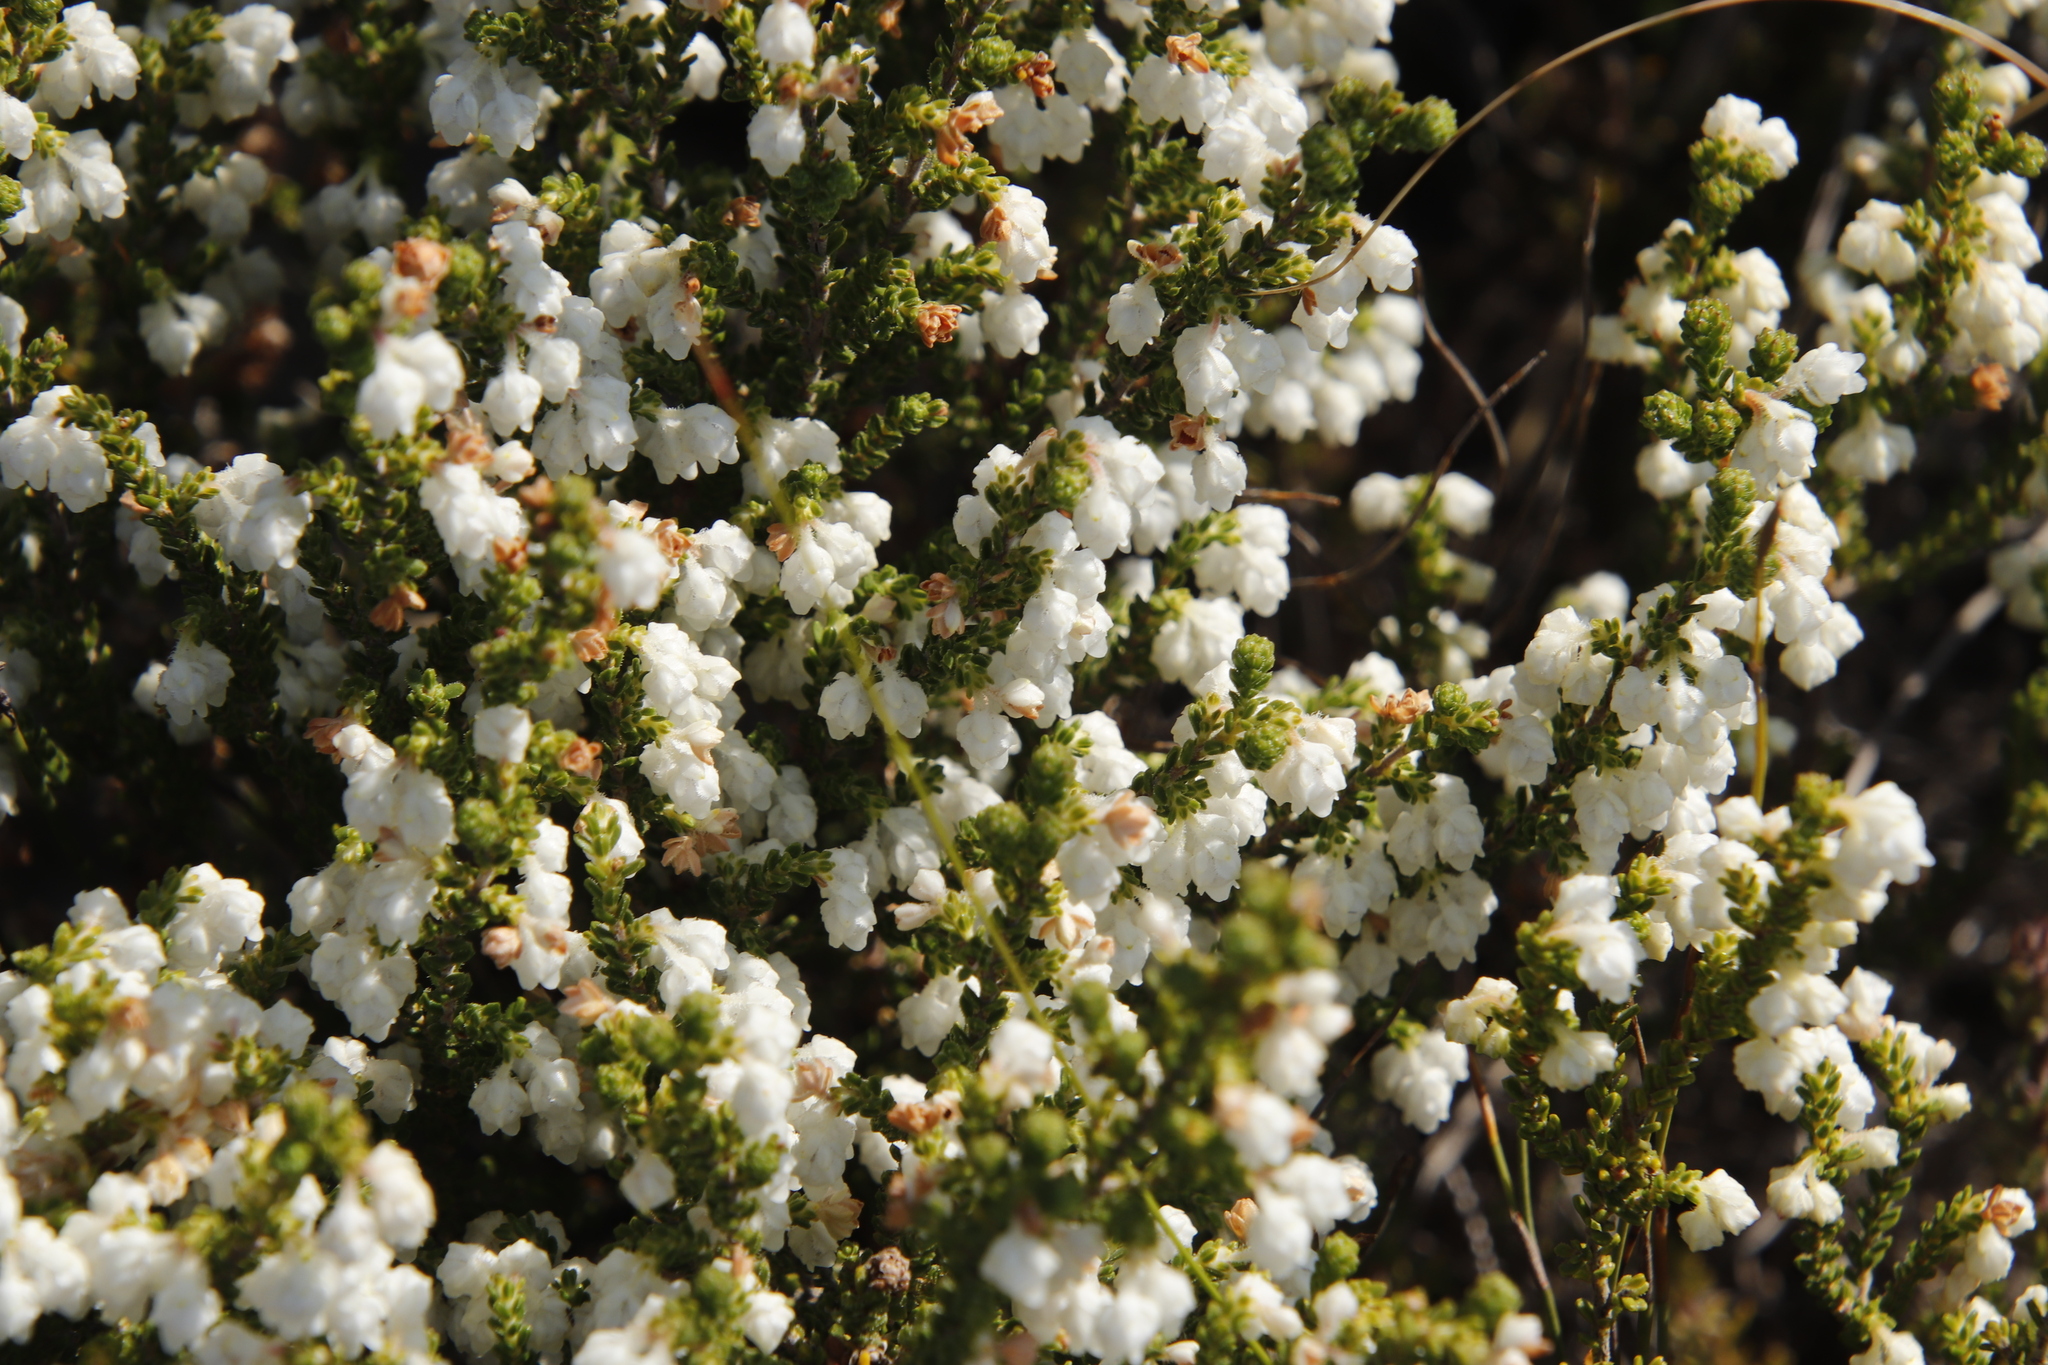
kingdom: Plantae
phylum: Tracheophyta
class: Magnoliopsida
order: Ericales
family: Ericaceae
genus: Erica
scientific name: Erica fimbriata
